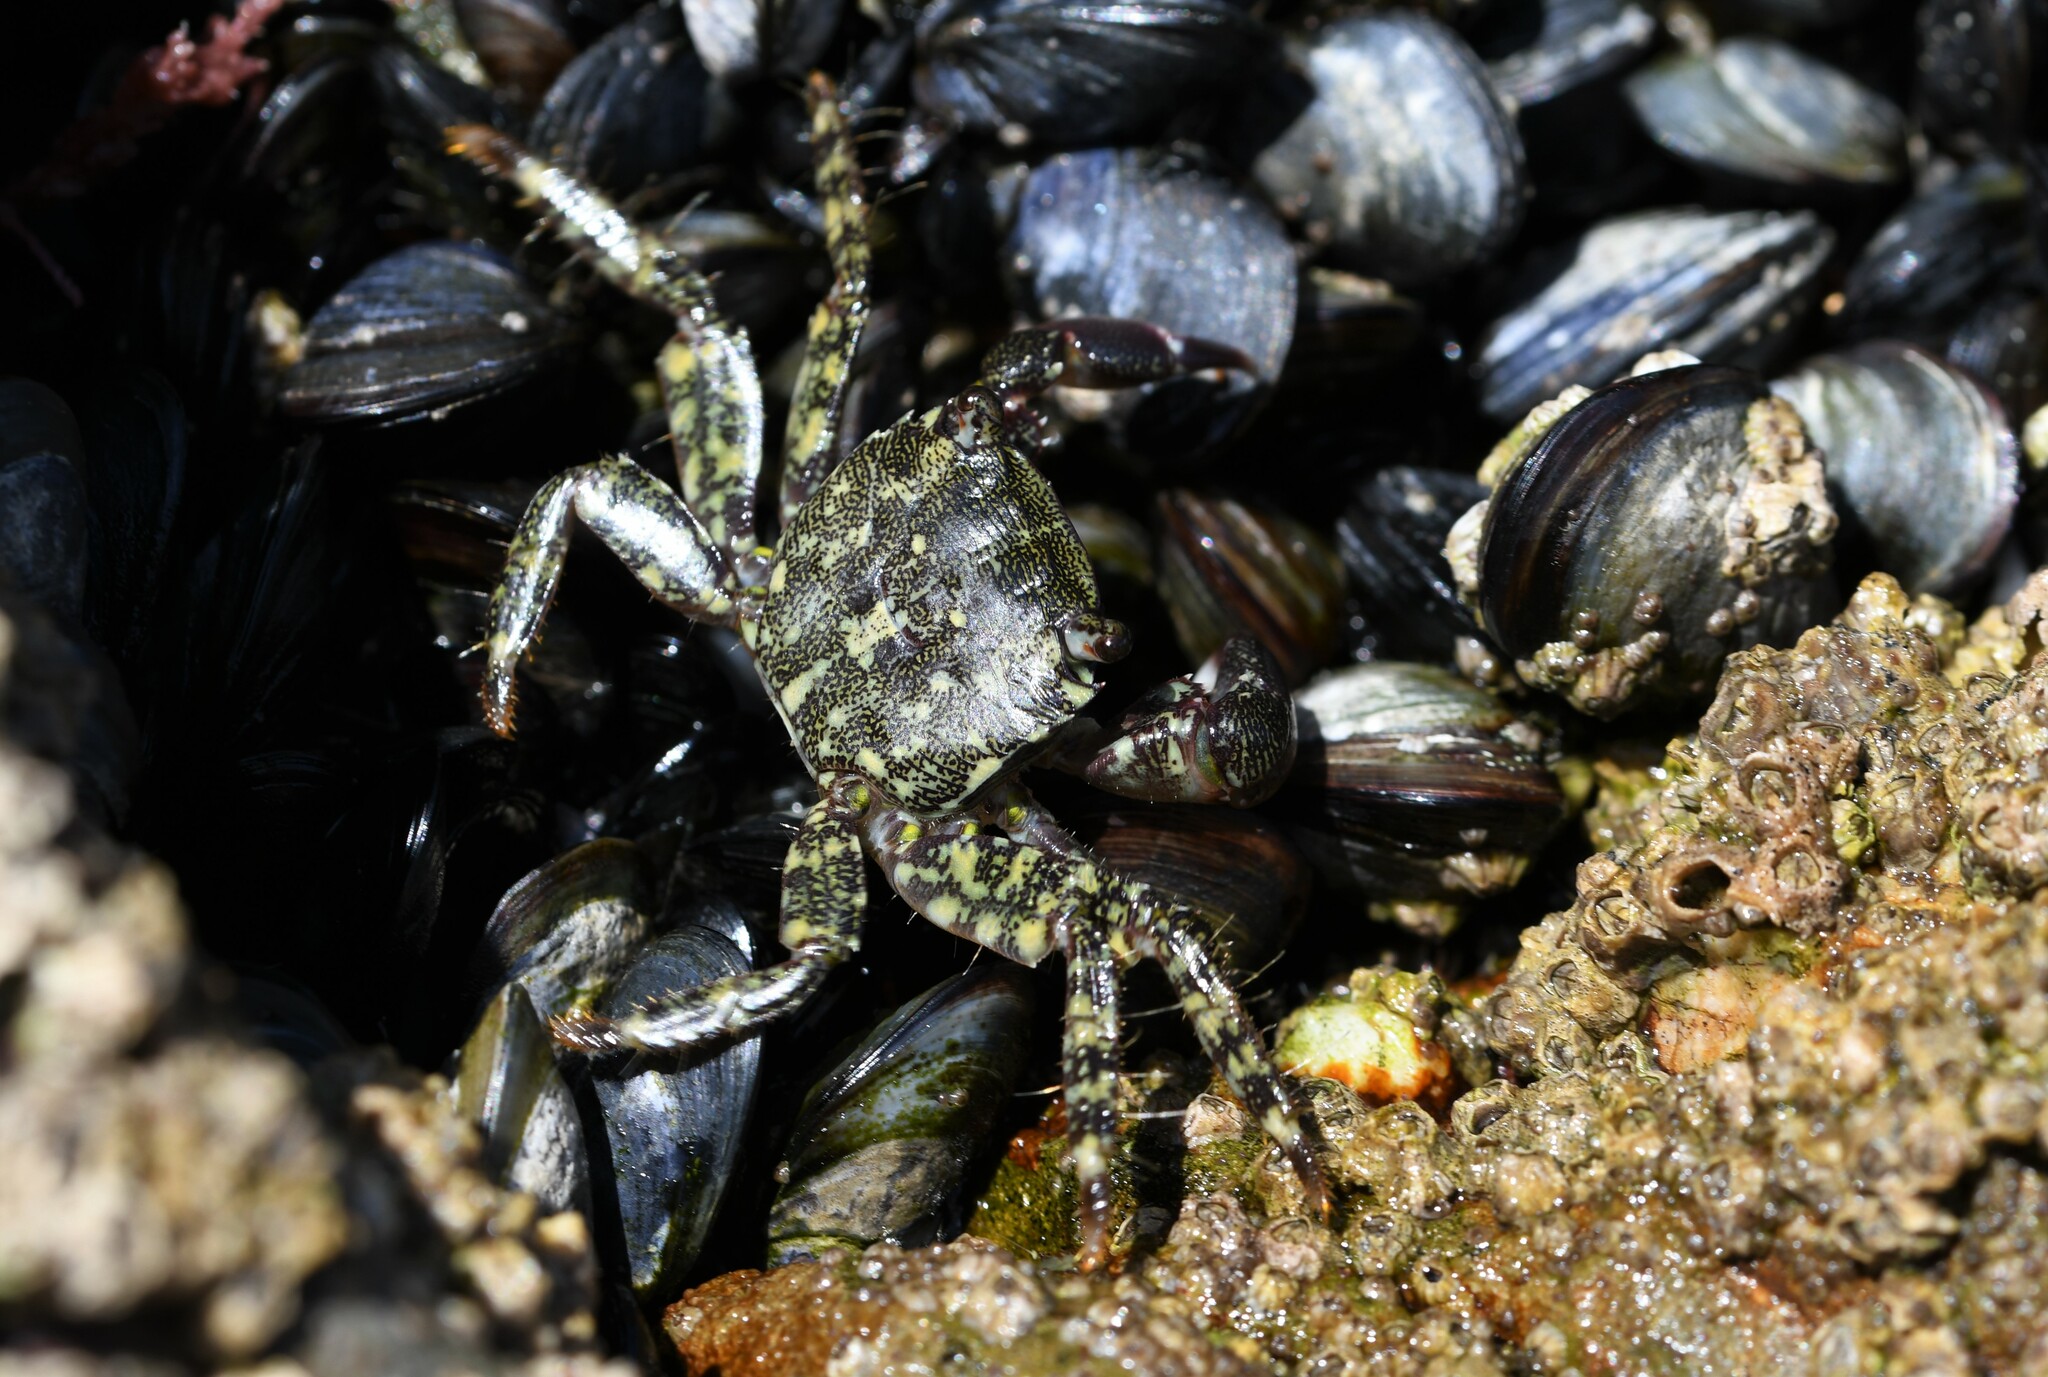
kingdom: Animalia
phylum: Arthropoda
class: Malacostraca
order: Decapoda
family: Grapsidae
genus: Pachygrapsus
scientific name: Pachygrapsus marmoratus
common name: Marbled rock crab
